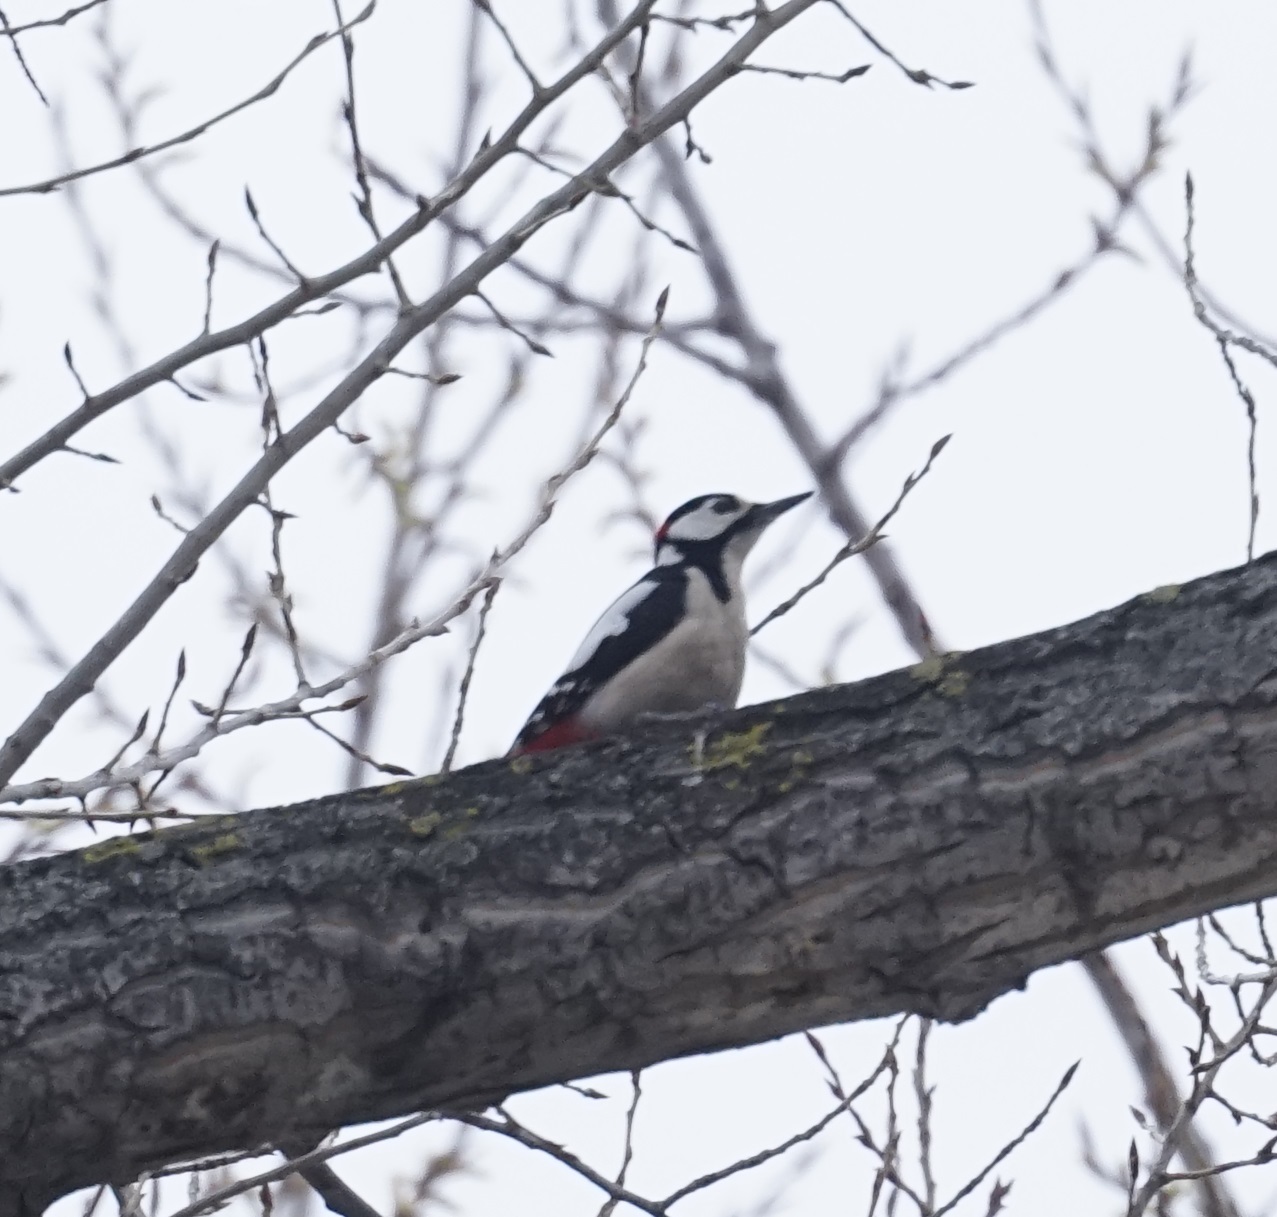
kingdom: Animalia
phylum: Chordata
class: Aves
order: Piciformes
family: Picidae
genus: Dendrocopos
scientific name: Dendrocopos major
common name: Great spotted woodpecker
